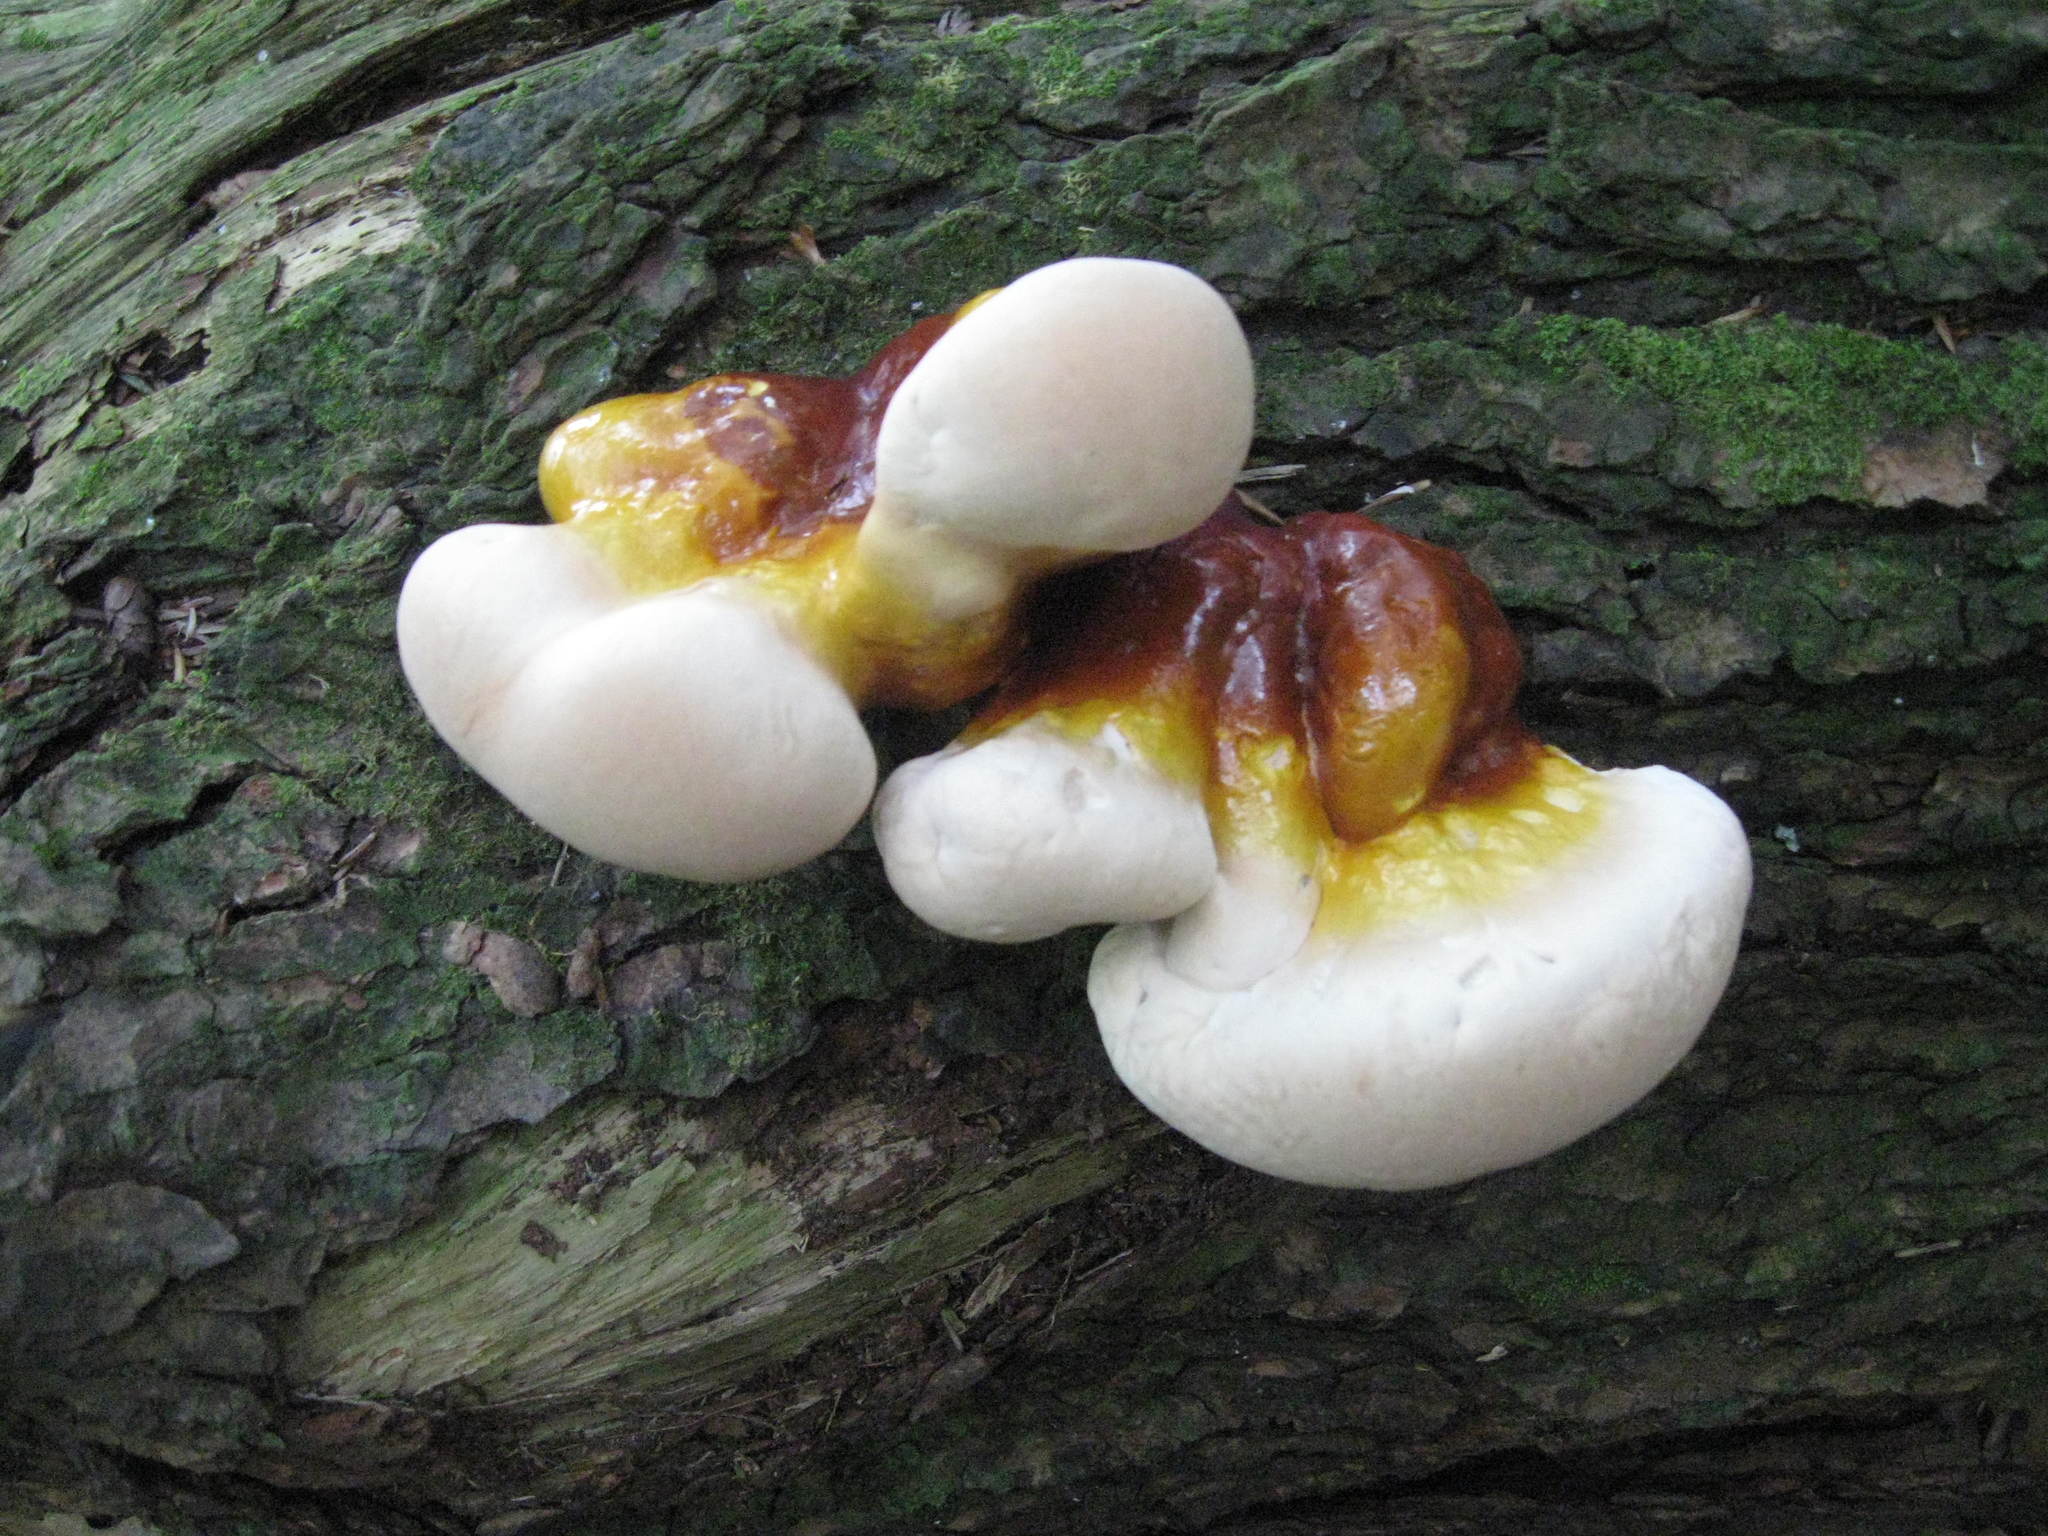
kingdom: Fungi
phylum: Basidiomycota
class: Agaricomycetes
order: Polyporales
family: Polyporaceae
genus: Ganoderma
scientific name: Ganoderma tsugae
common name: Hemlock varnish shelf
